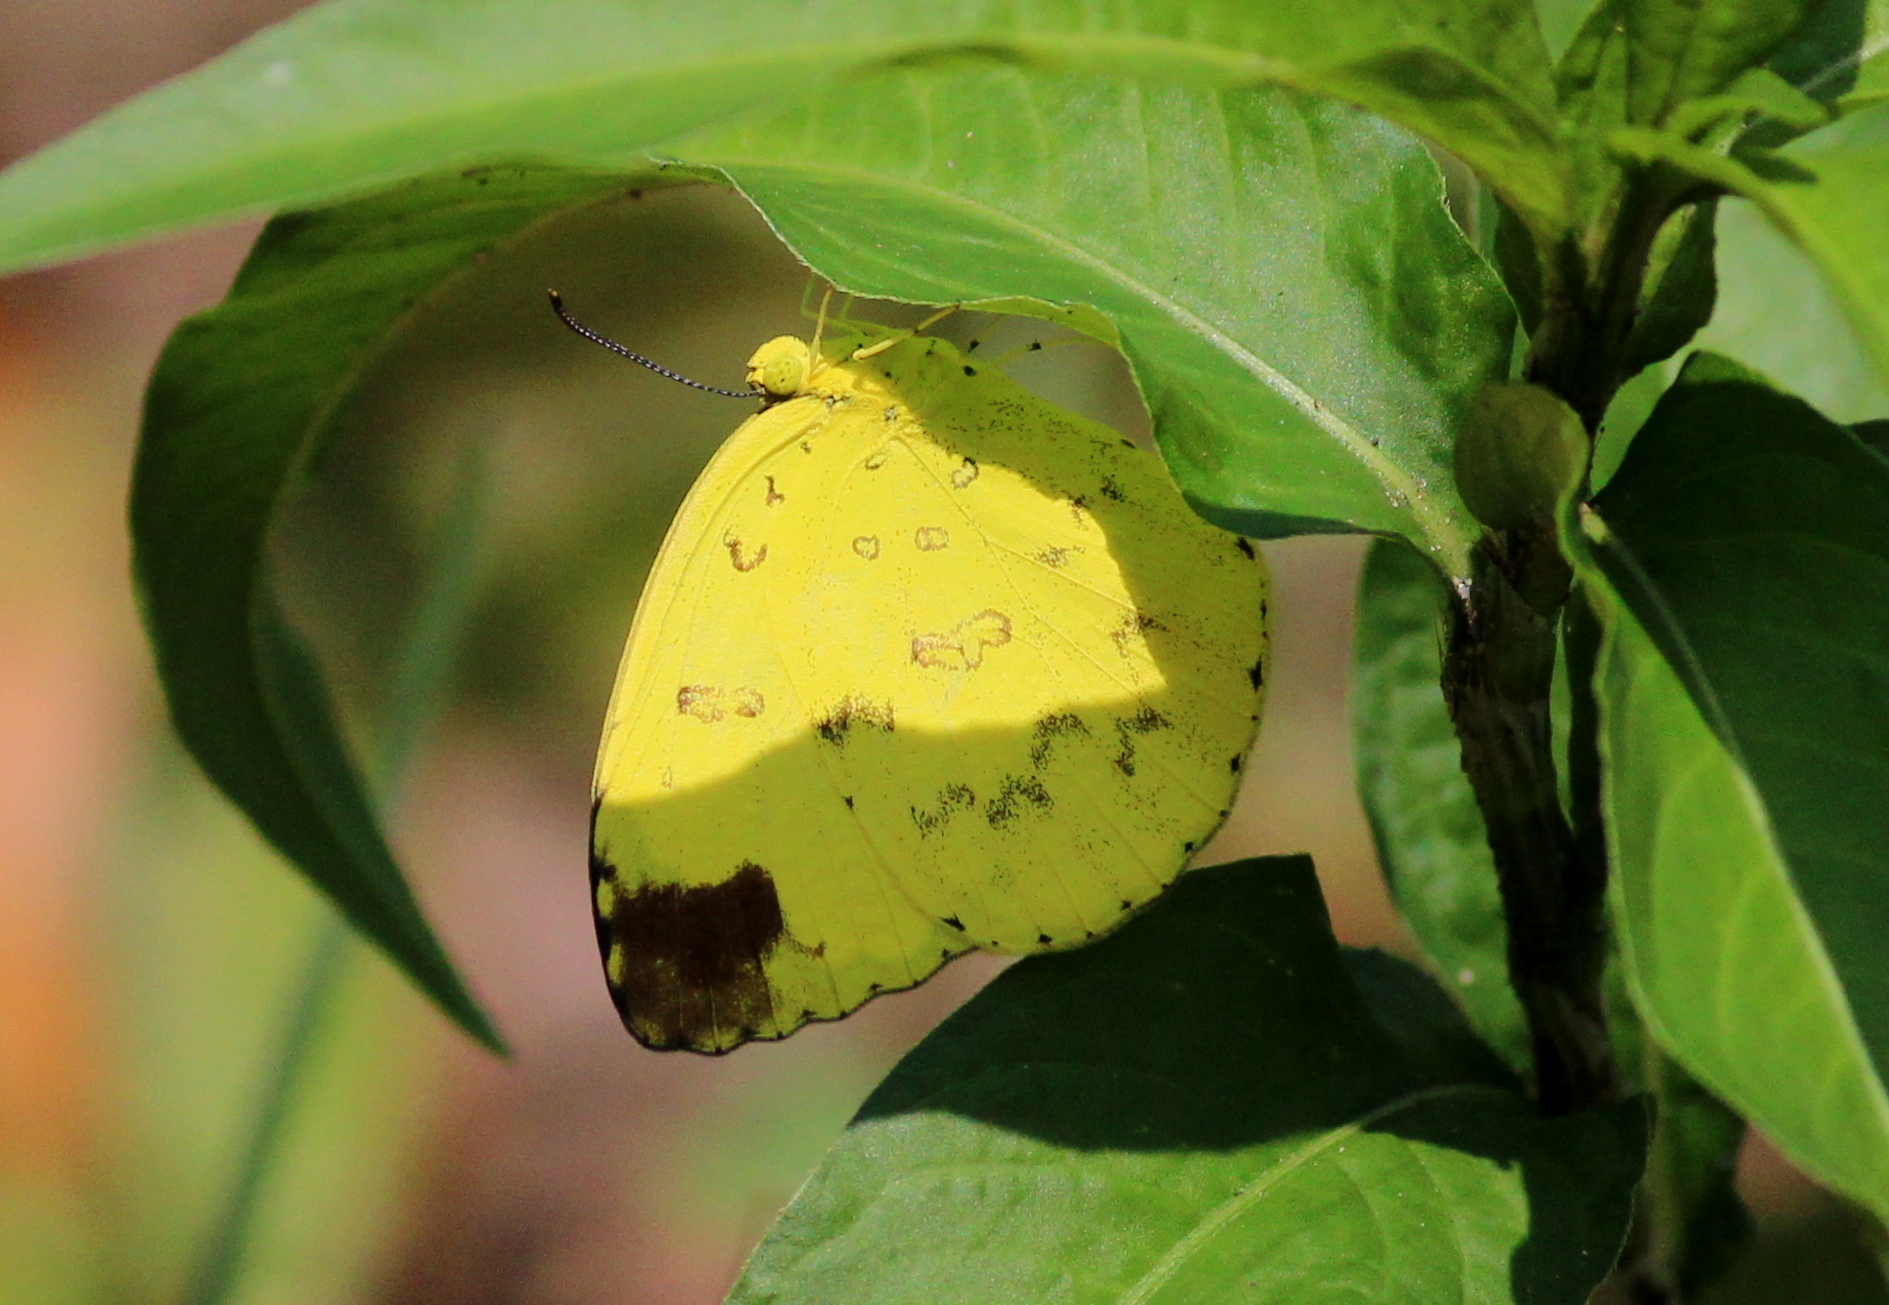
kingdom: Animalia
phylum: Arthropoda
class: Insecta
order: Lepidoptera
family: Pieridae
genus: Eurema
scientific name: Eurema blanda
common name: Three-spot grass yellow
